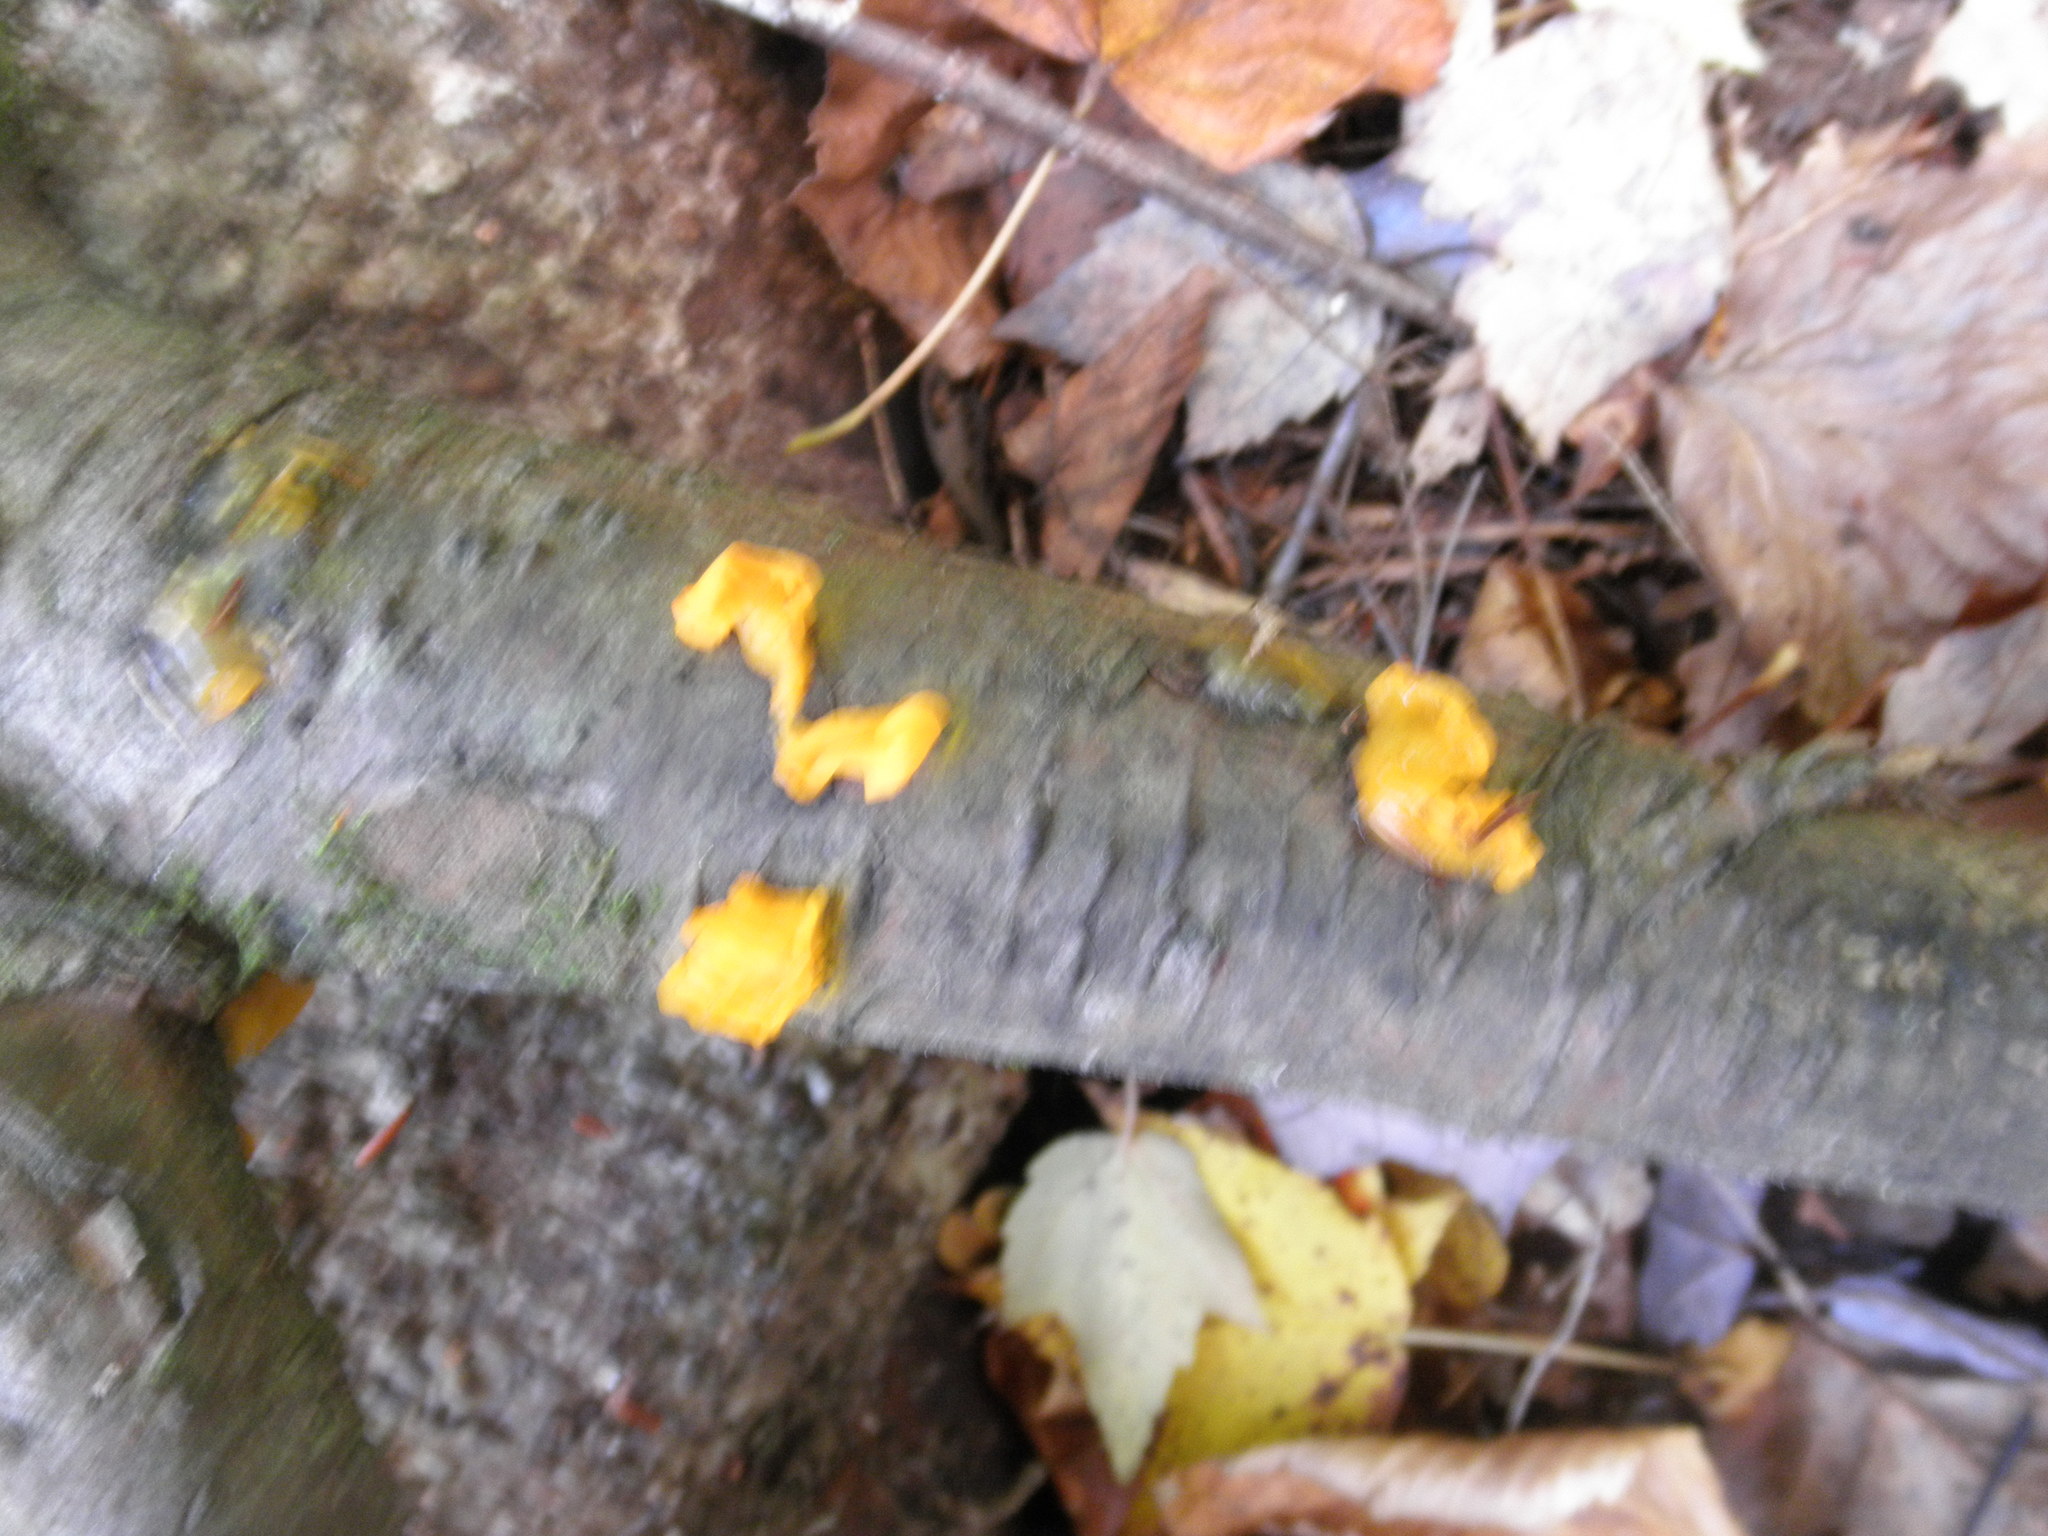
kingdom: Fungi
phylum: Basidiomycota
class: Tremellomycetes
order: Tremellales
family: Tremellaceae
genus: Tremella
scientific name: Tremella mesenterica
